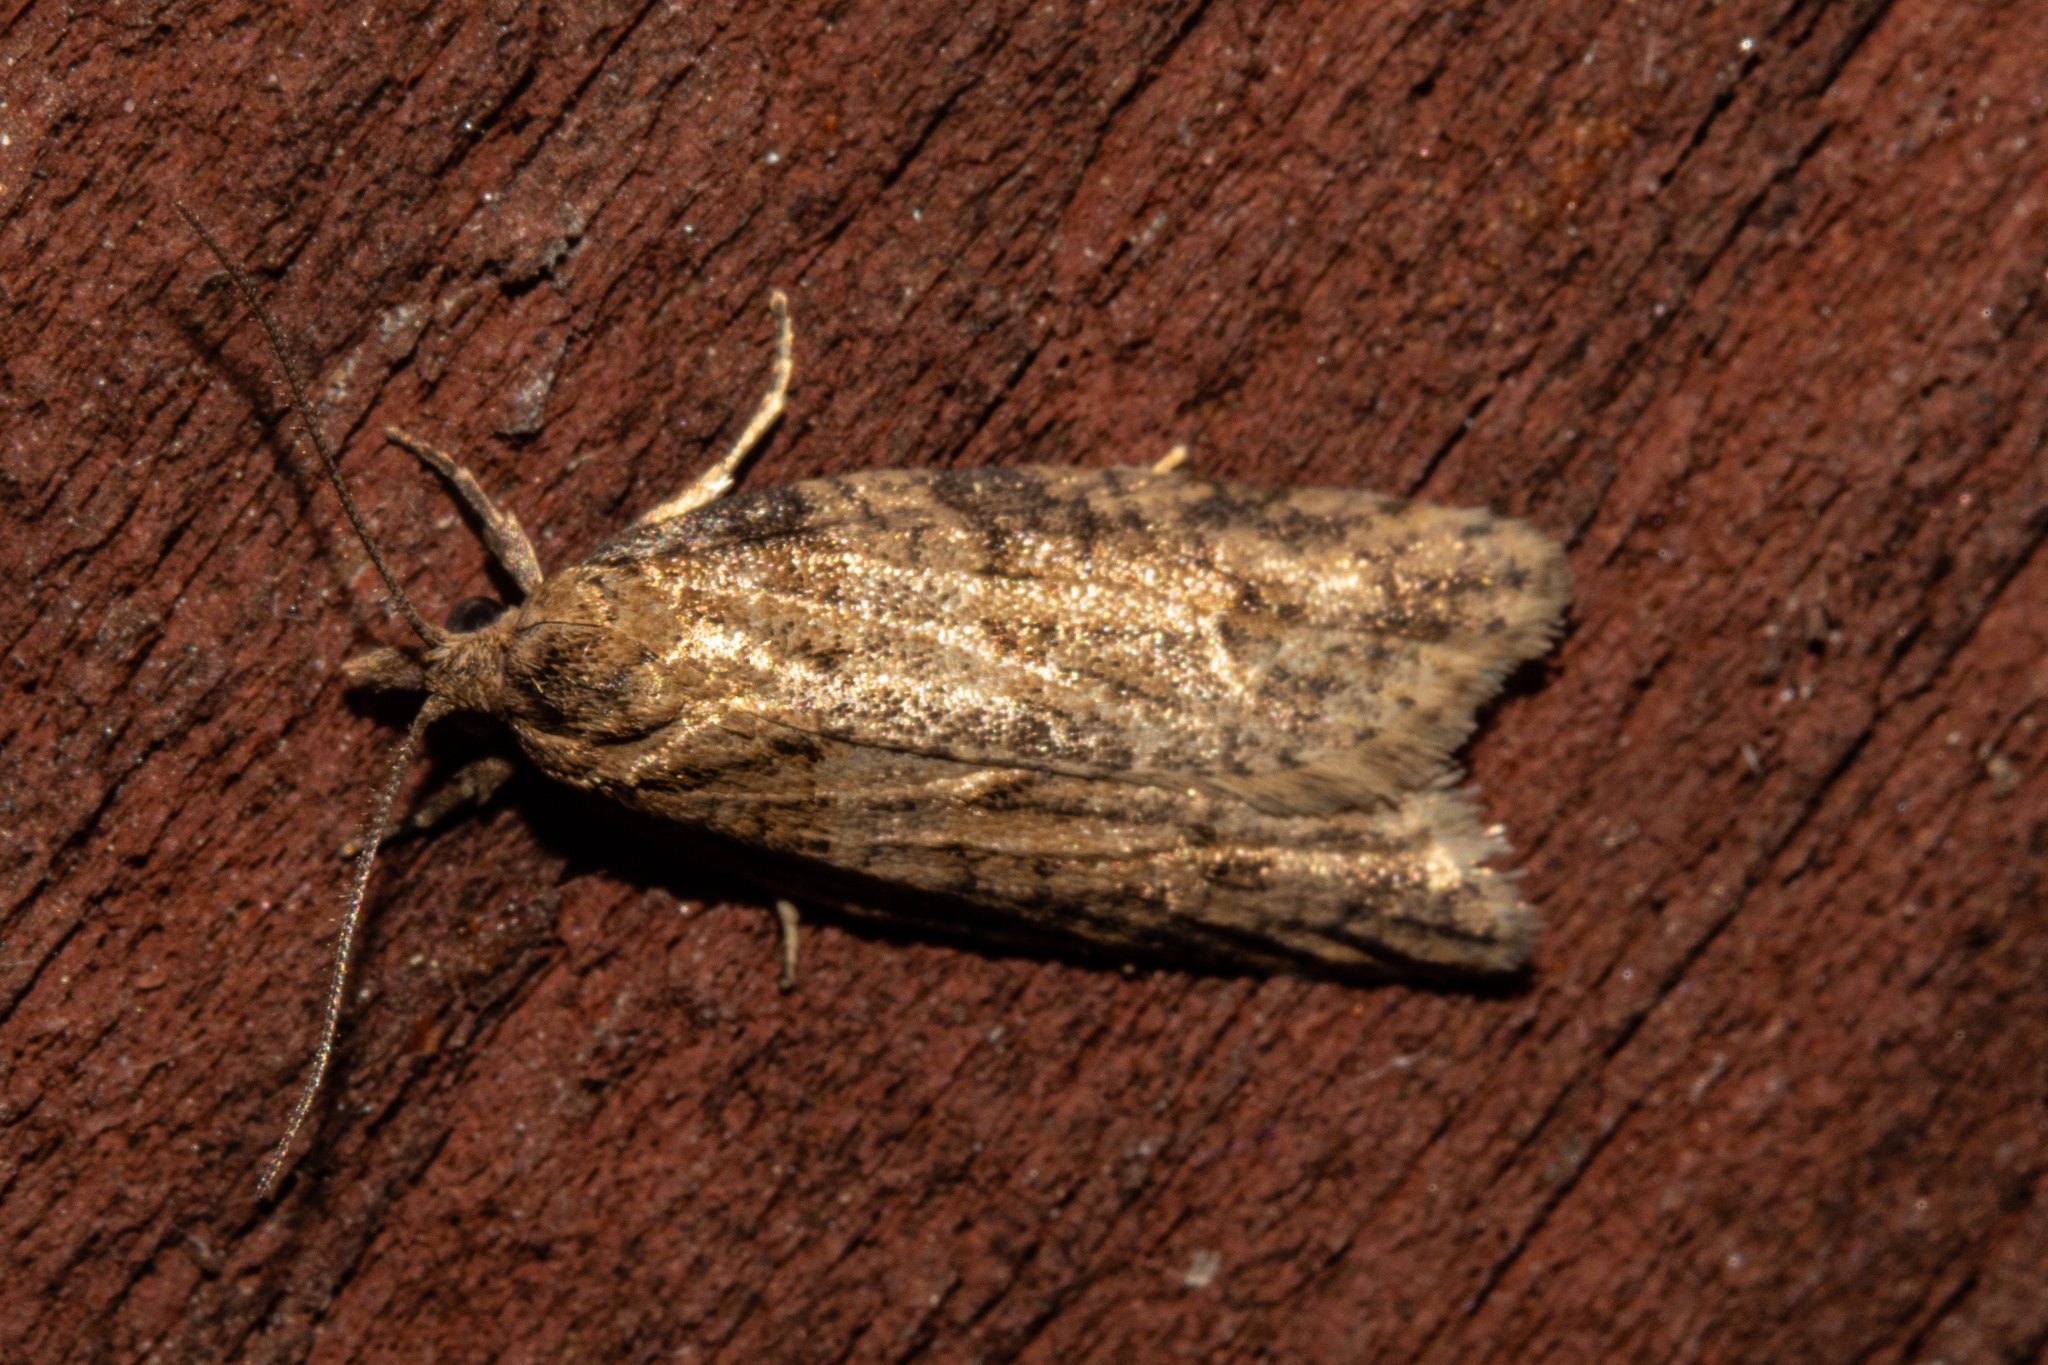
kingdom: Animalia
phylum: Arthropoda
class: Insecta
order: Lepidoptera
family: Tortricidae
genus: Prothelymna
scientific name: Prothelymna antiquana
